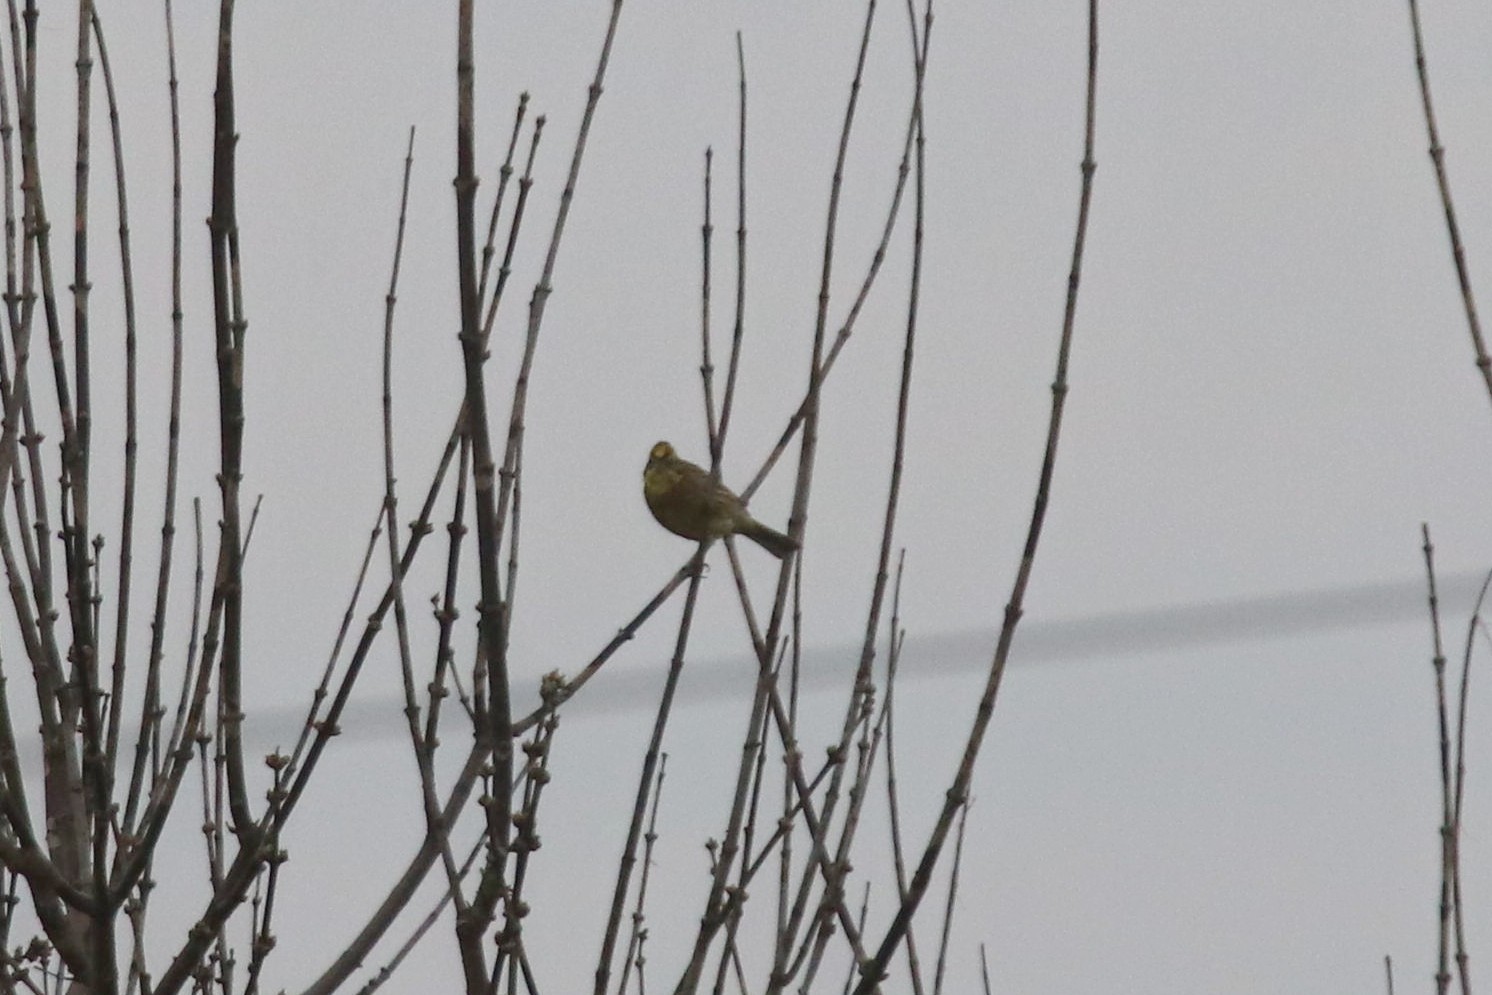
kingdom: Animalia
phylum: Chordata
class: Aves
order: Passeriformes
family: Emberizidae
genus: Emberiza
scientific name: Emberiza citrinella
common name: Yellowhammer
